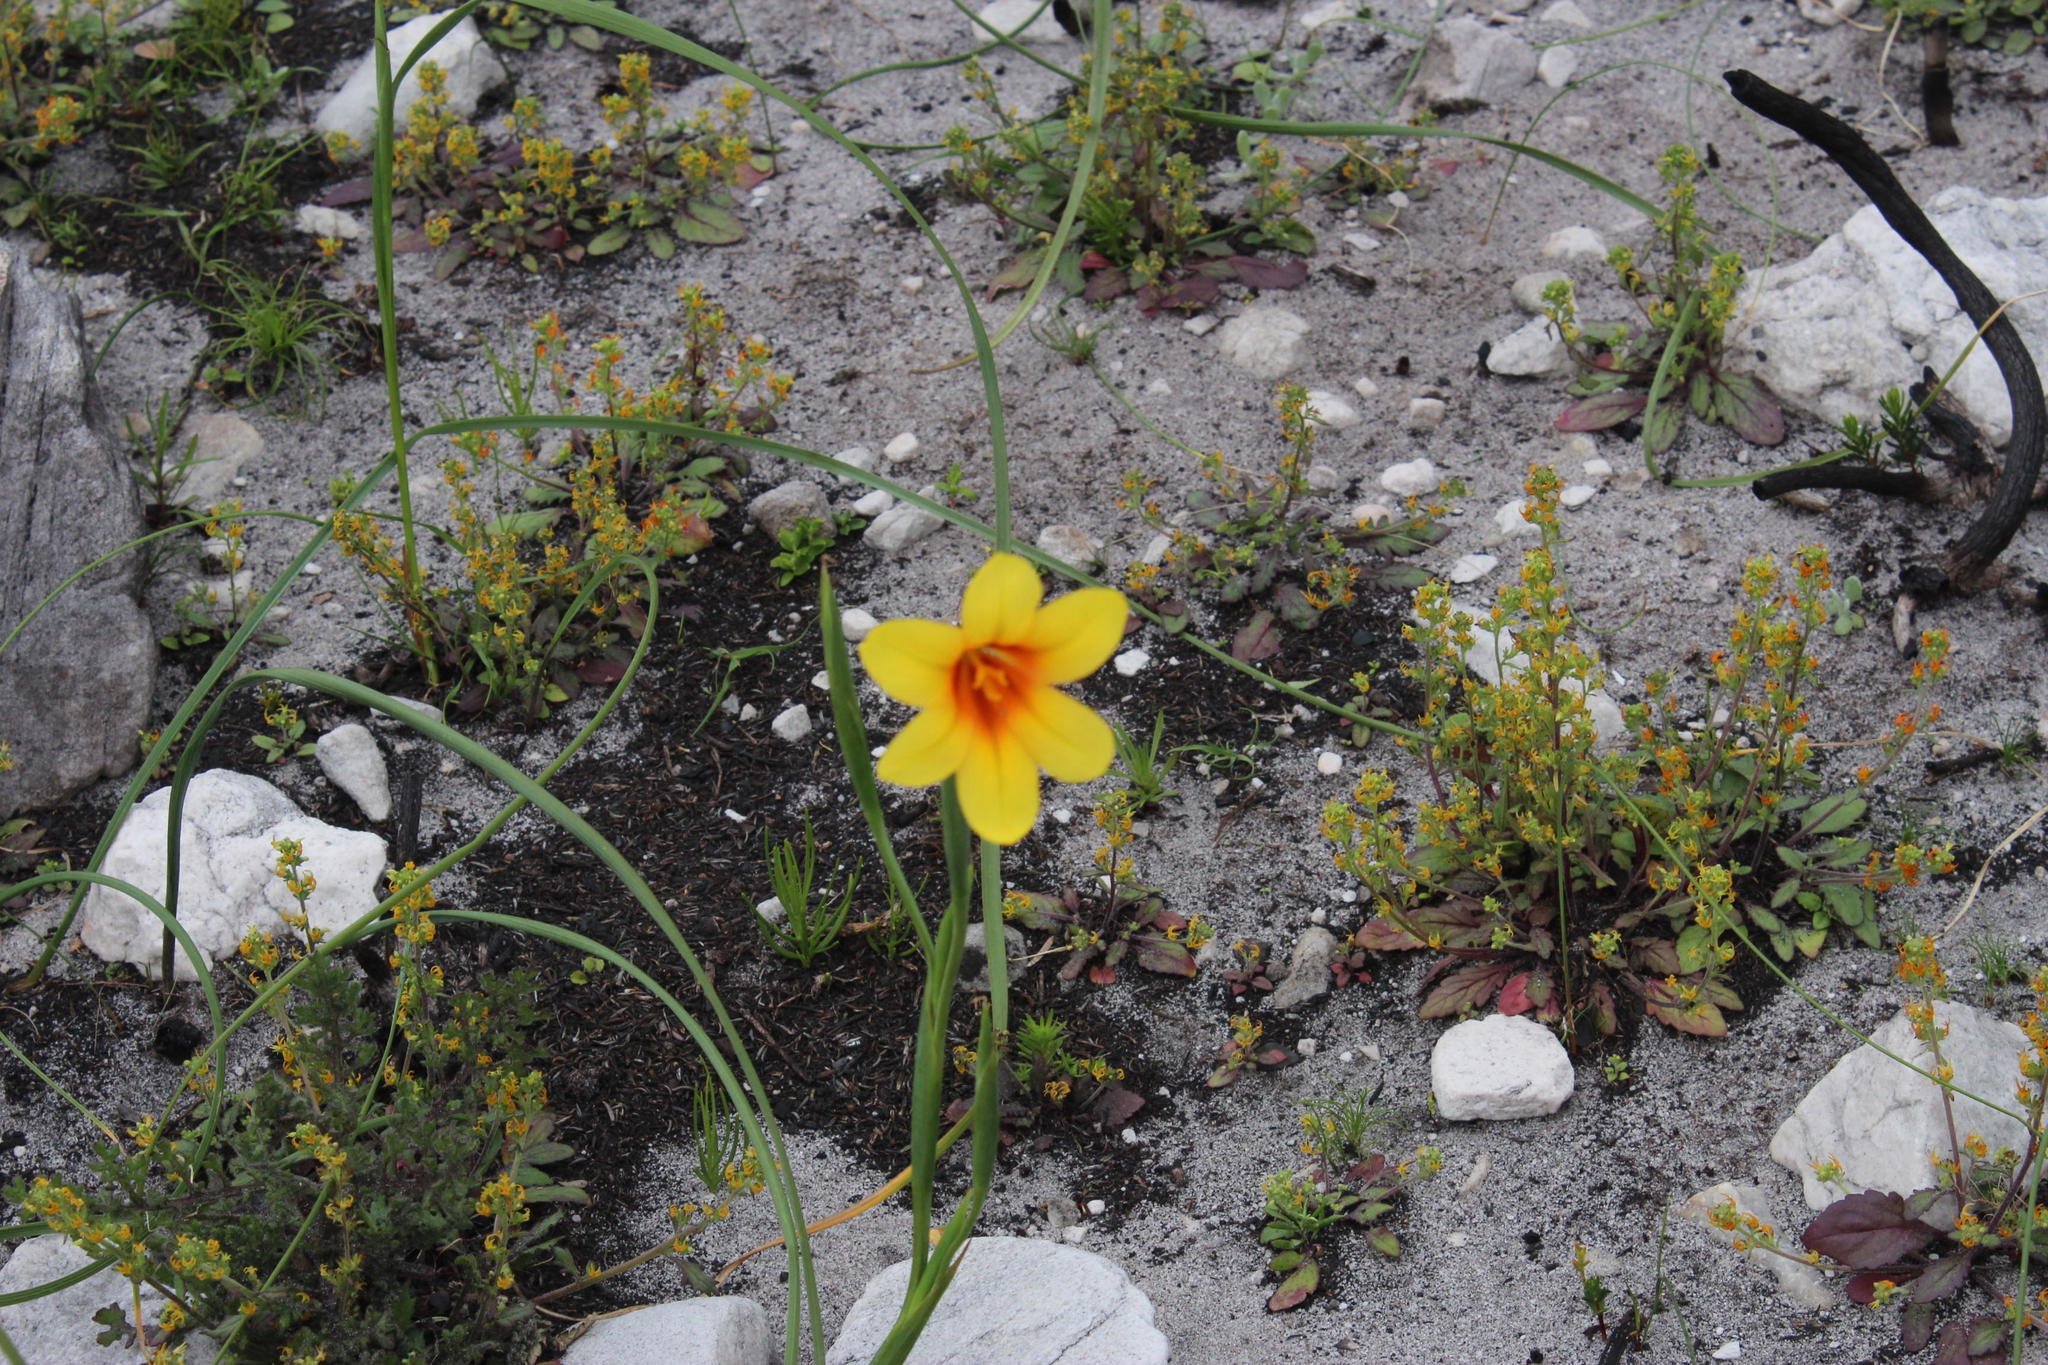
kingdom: Plantae
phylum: Tracheophyta
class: Magnoliopsida
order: Lamiales
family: Scrophulariaceae
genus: Manulea
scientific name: Manulea cheiranthus
